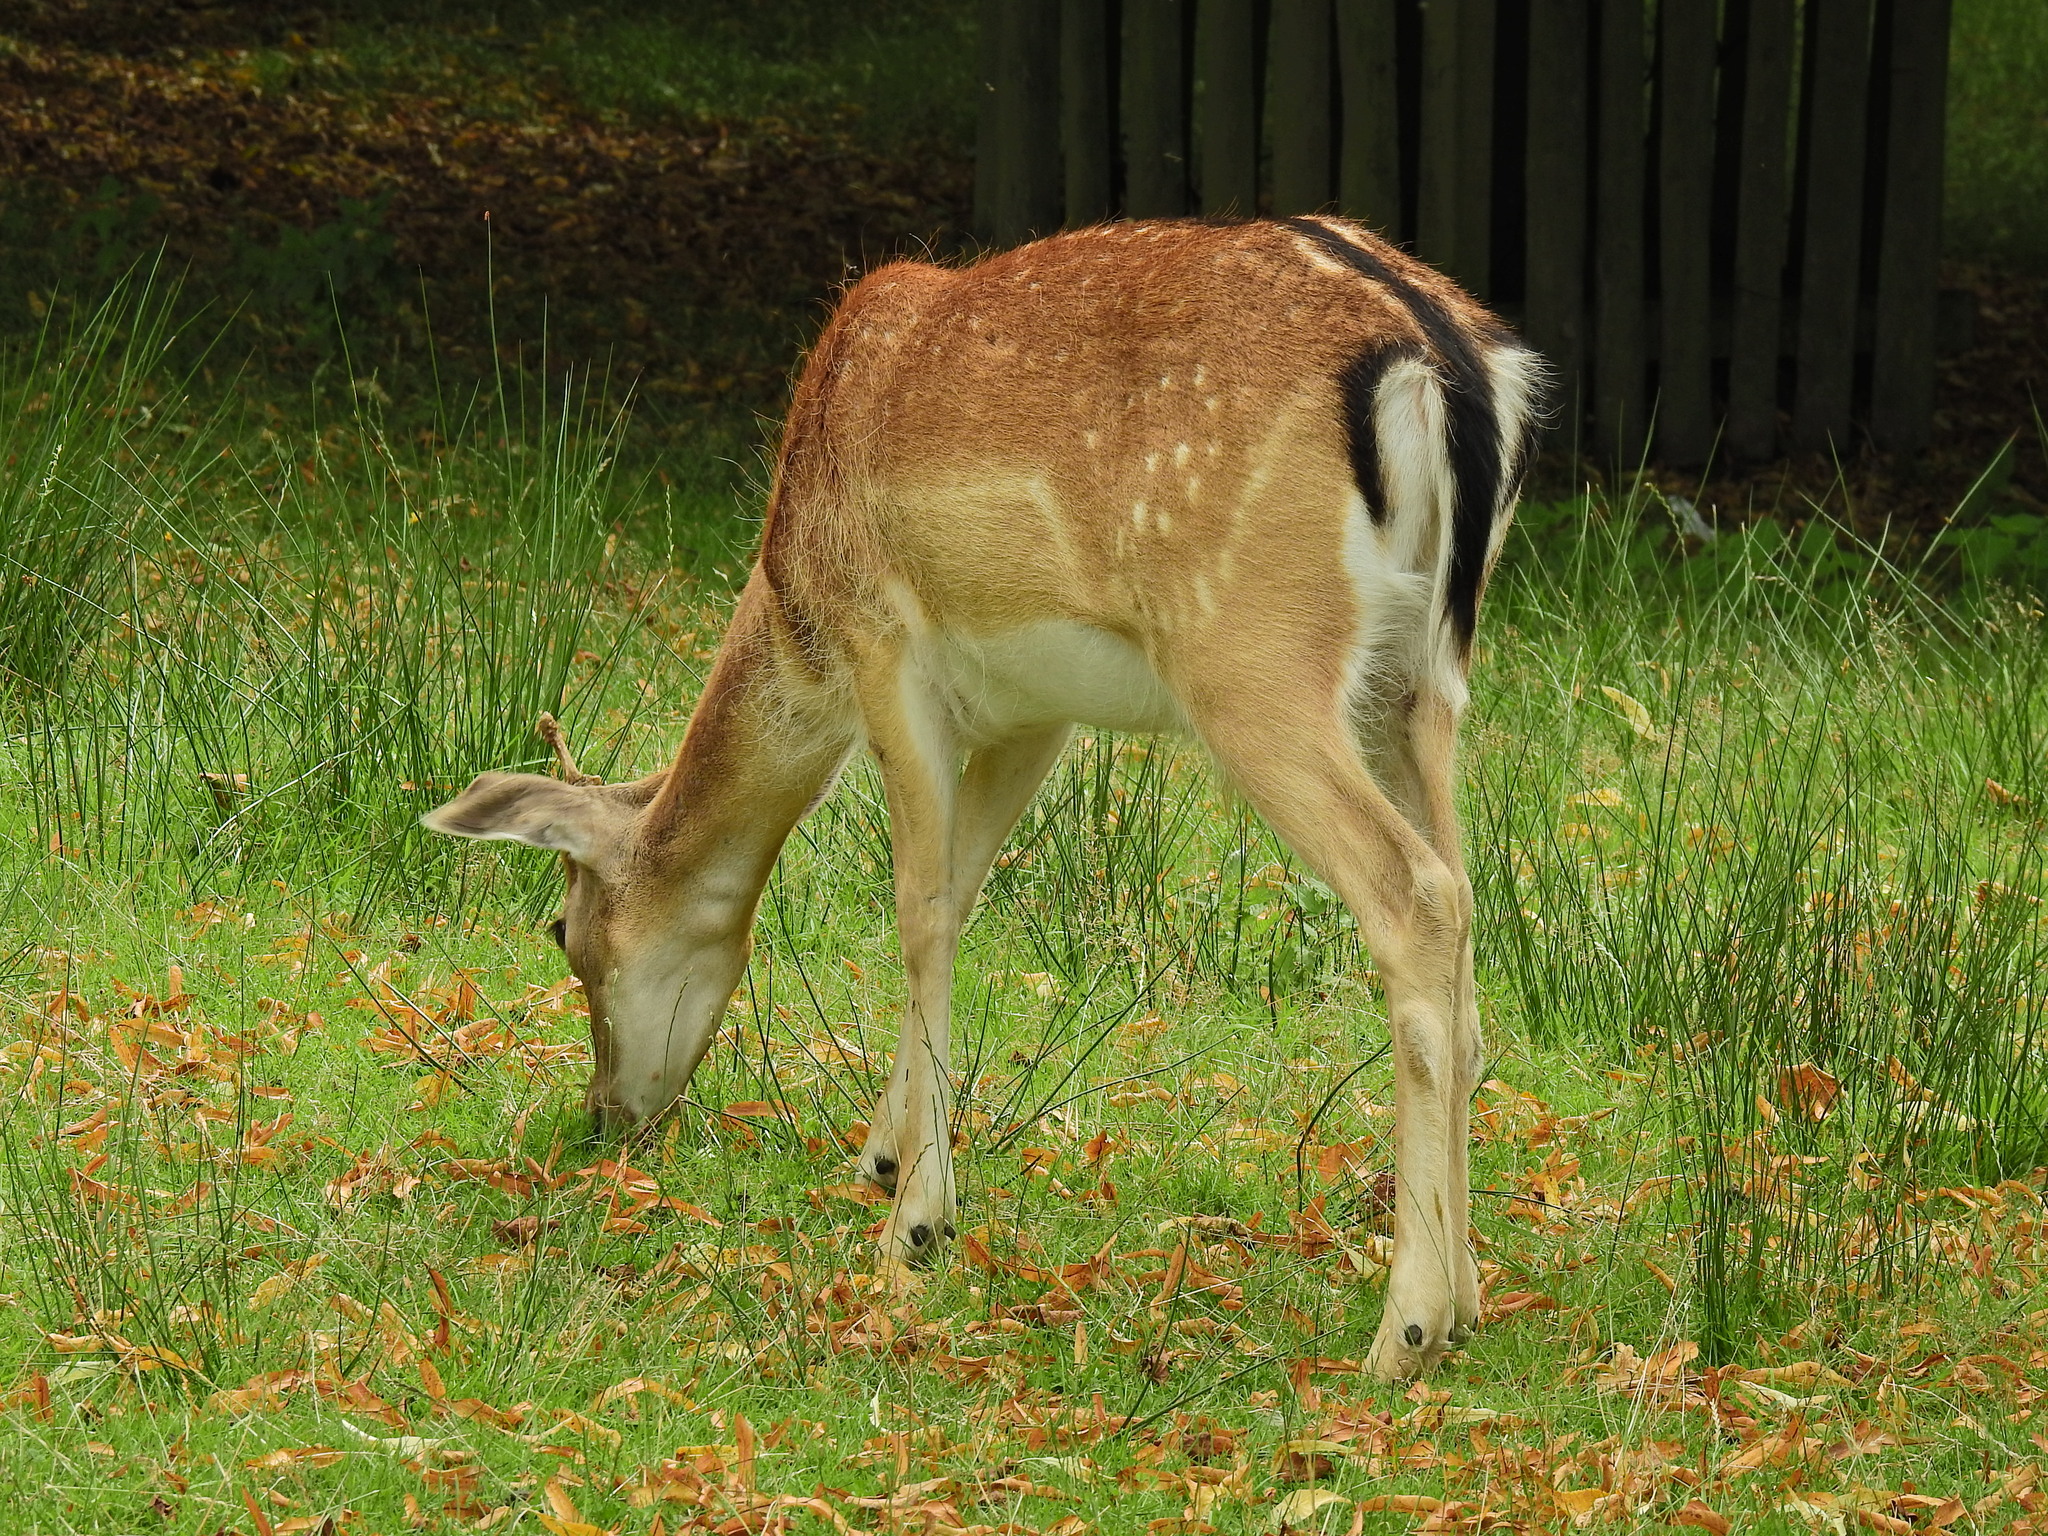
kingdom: Animalia
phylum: Chordata
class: Mammalia
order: Artiodactyla
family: Cervidae
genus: Dama
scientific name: Dama dama
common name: Fallow deer
